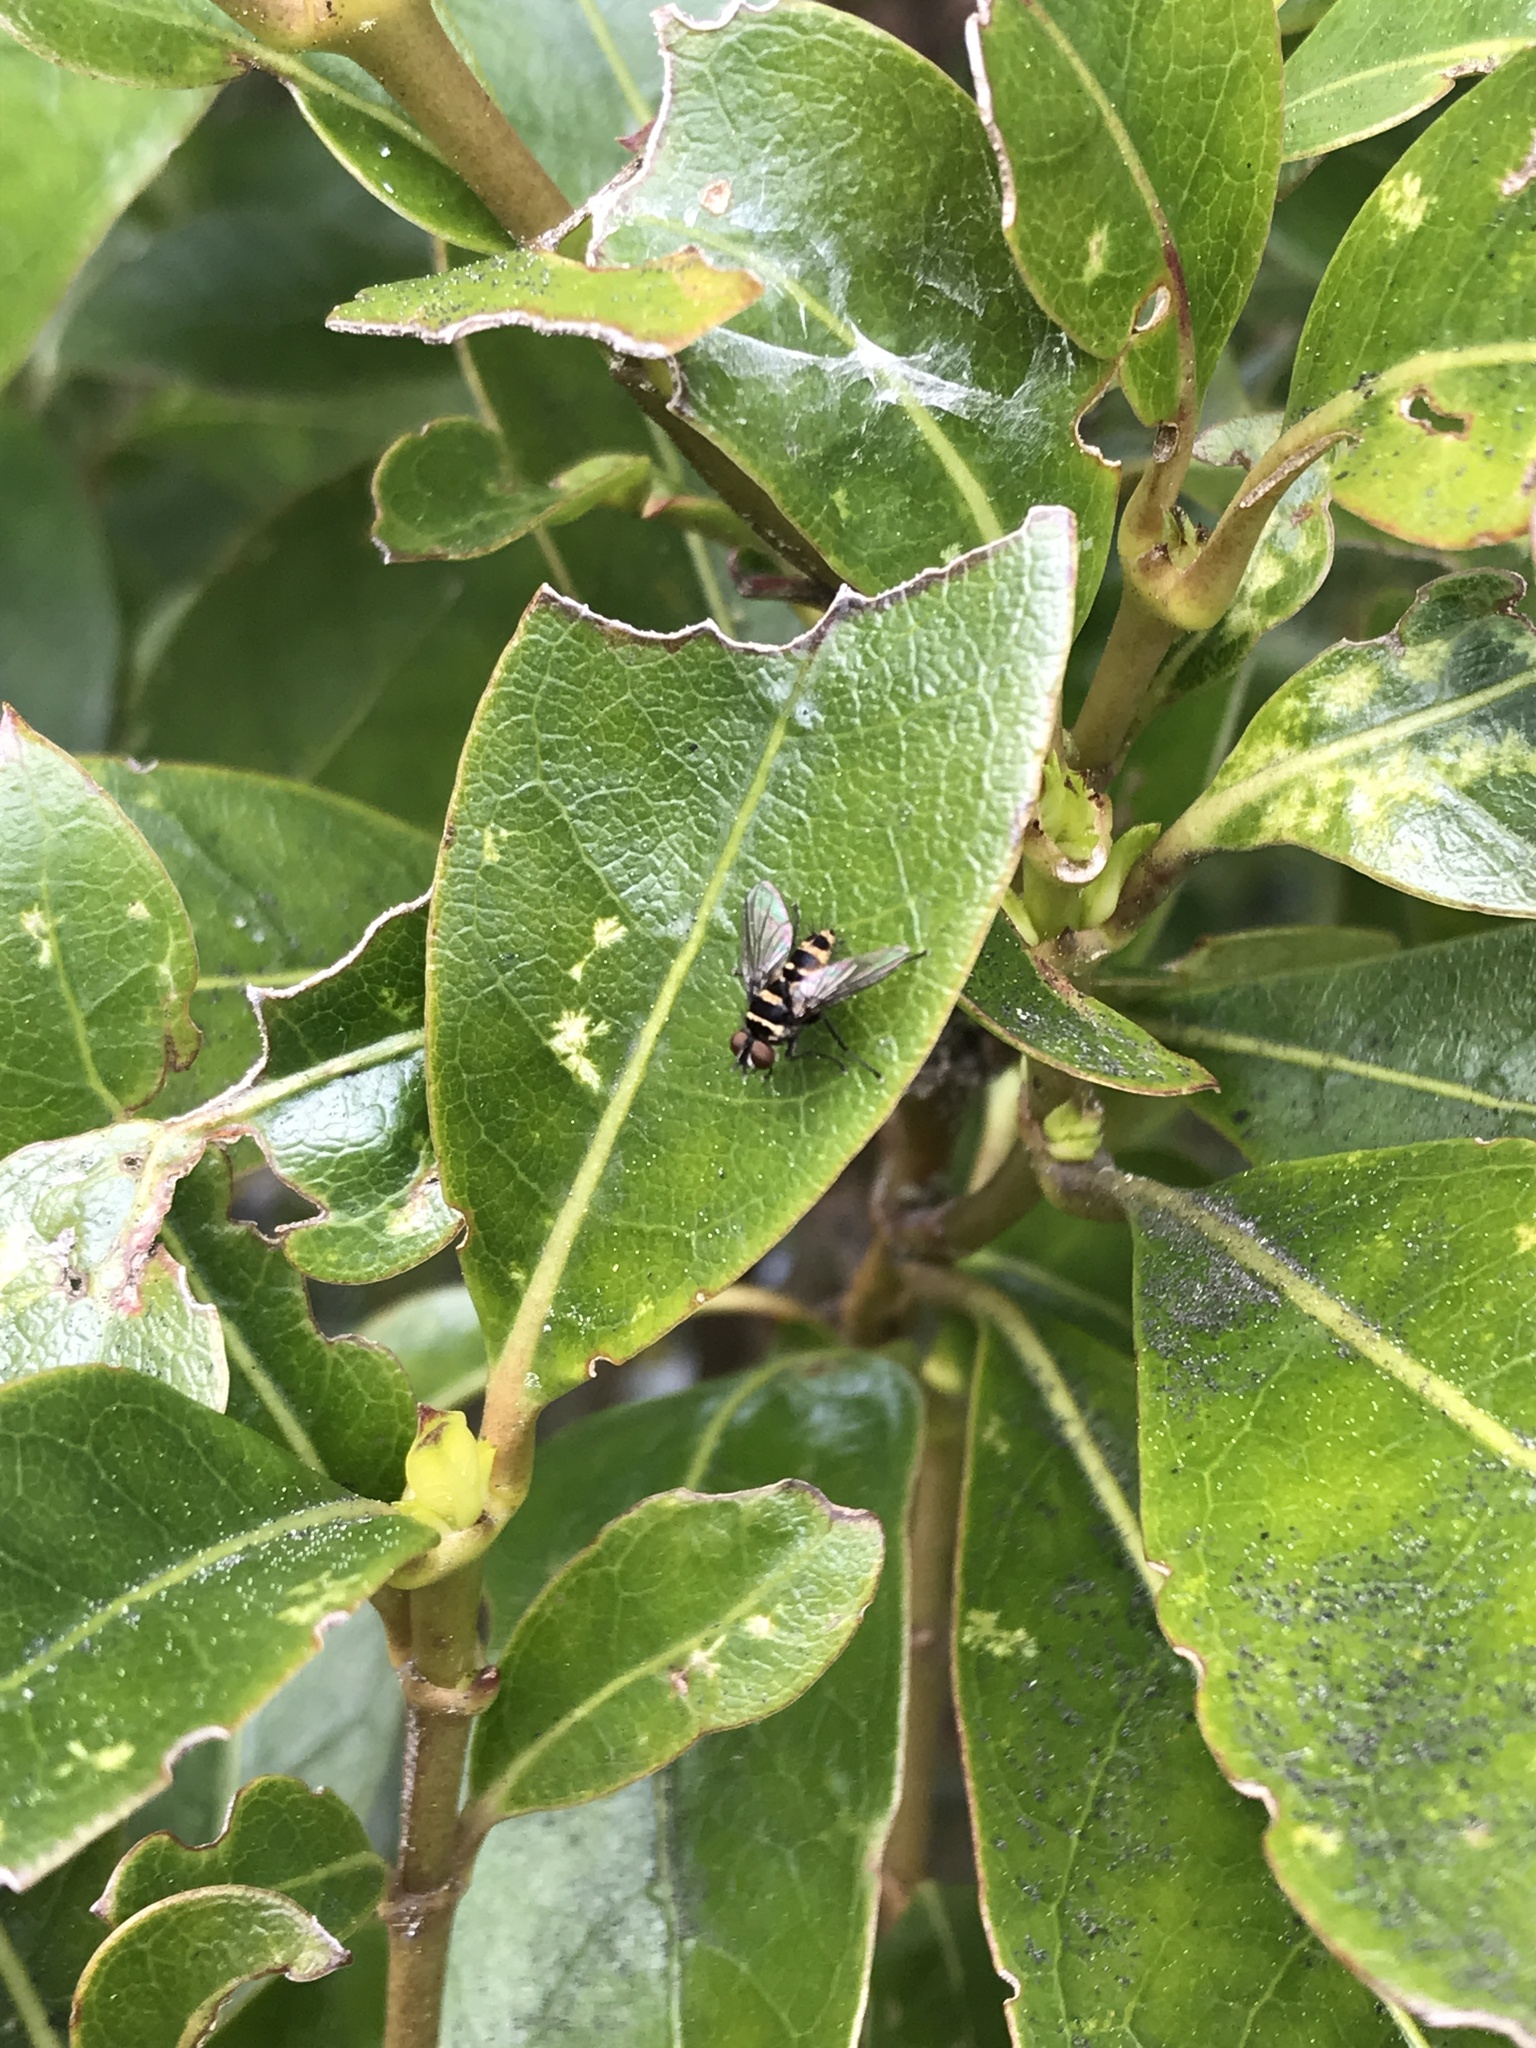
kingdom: Animalia
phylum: Arthropoda
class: Insecta
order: Diptera
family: Tachinidae
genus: Trigonospila
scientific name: Trigonospila brevifacies
